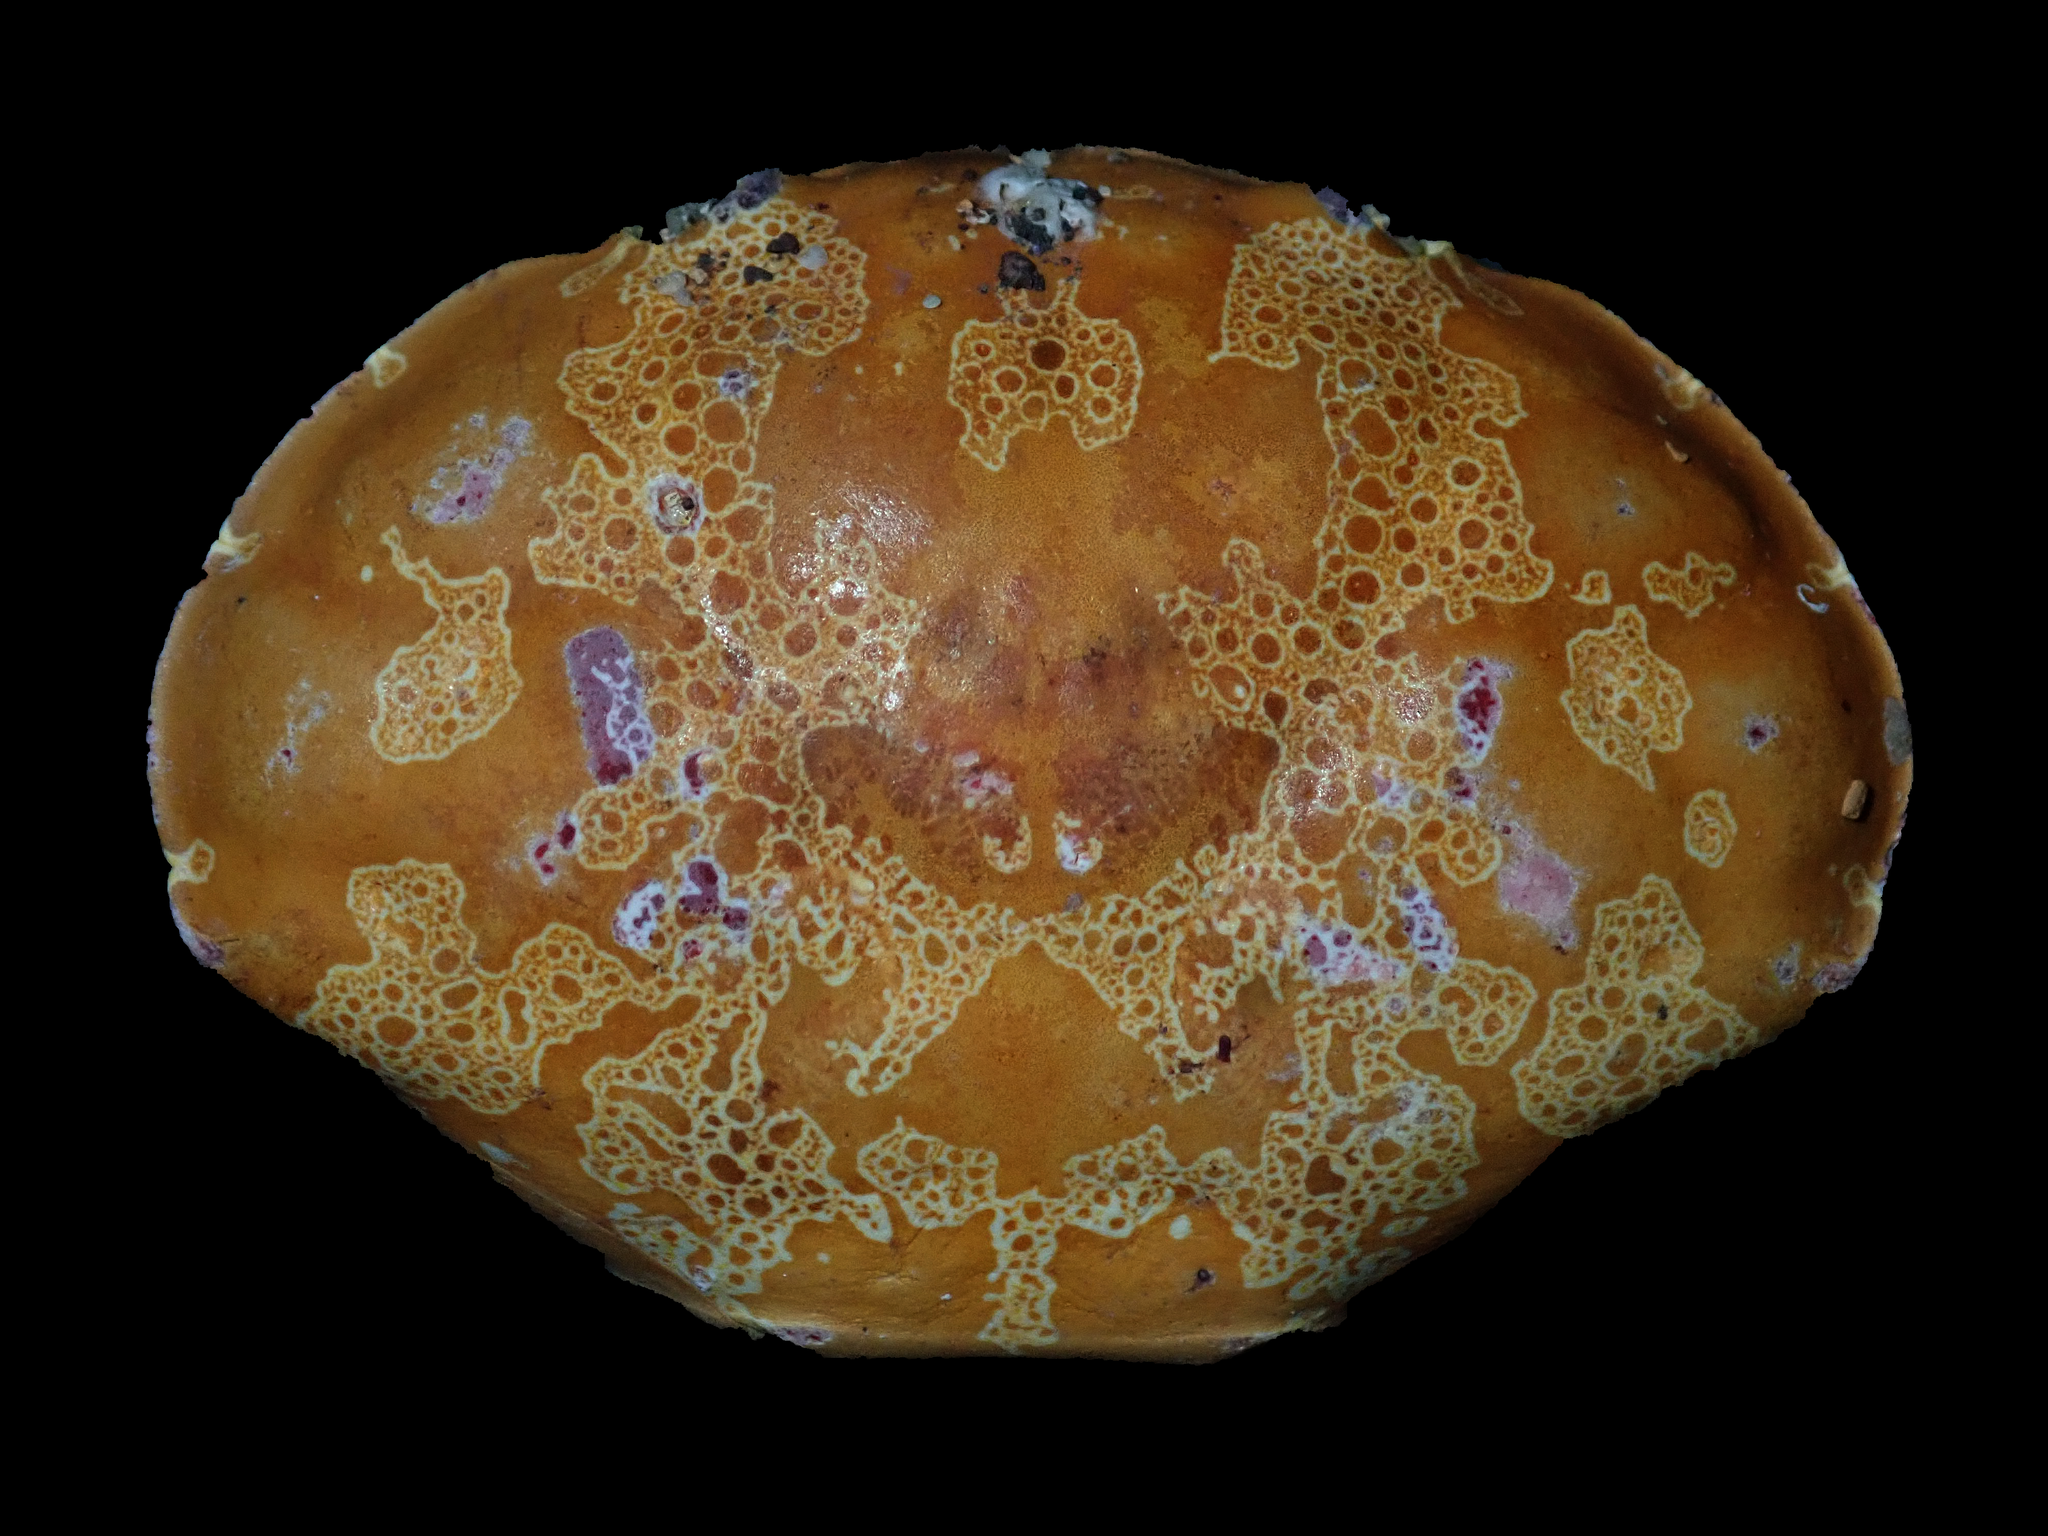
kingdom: Animalia
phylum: Arthropoda
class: Malacostraca
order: Decapoda
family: Xanthidae
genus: Atergatis
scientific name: Atergatis floridus
